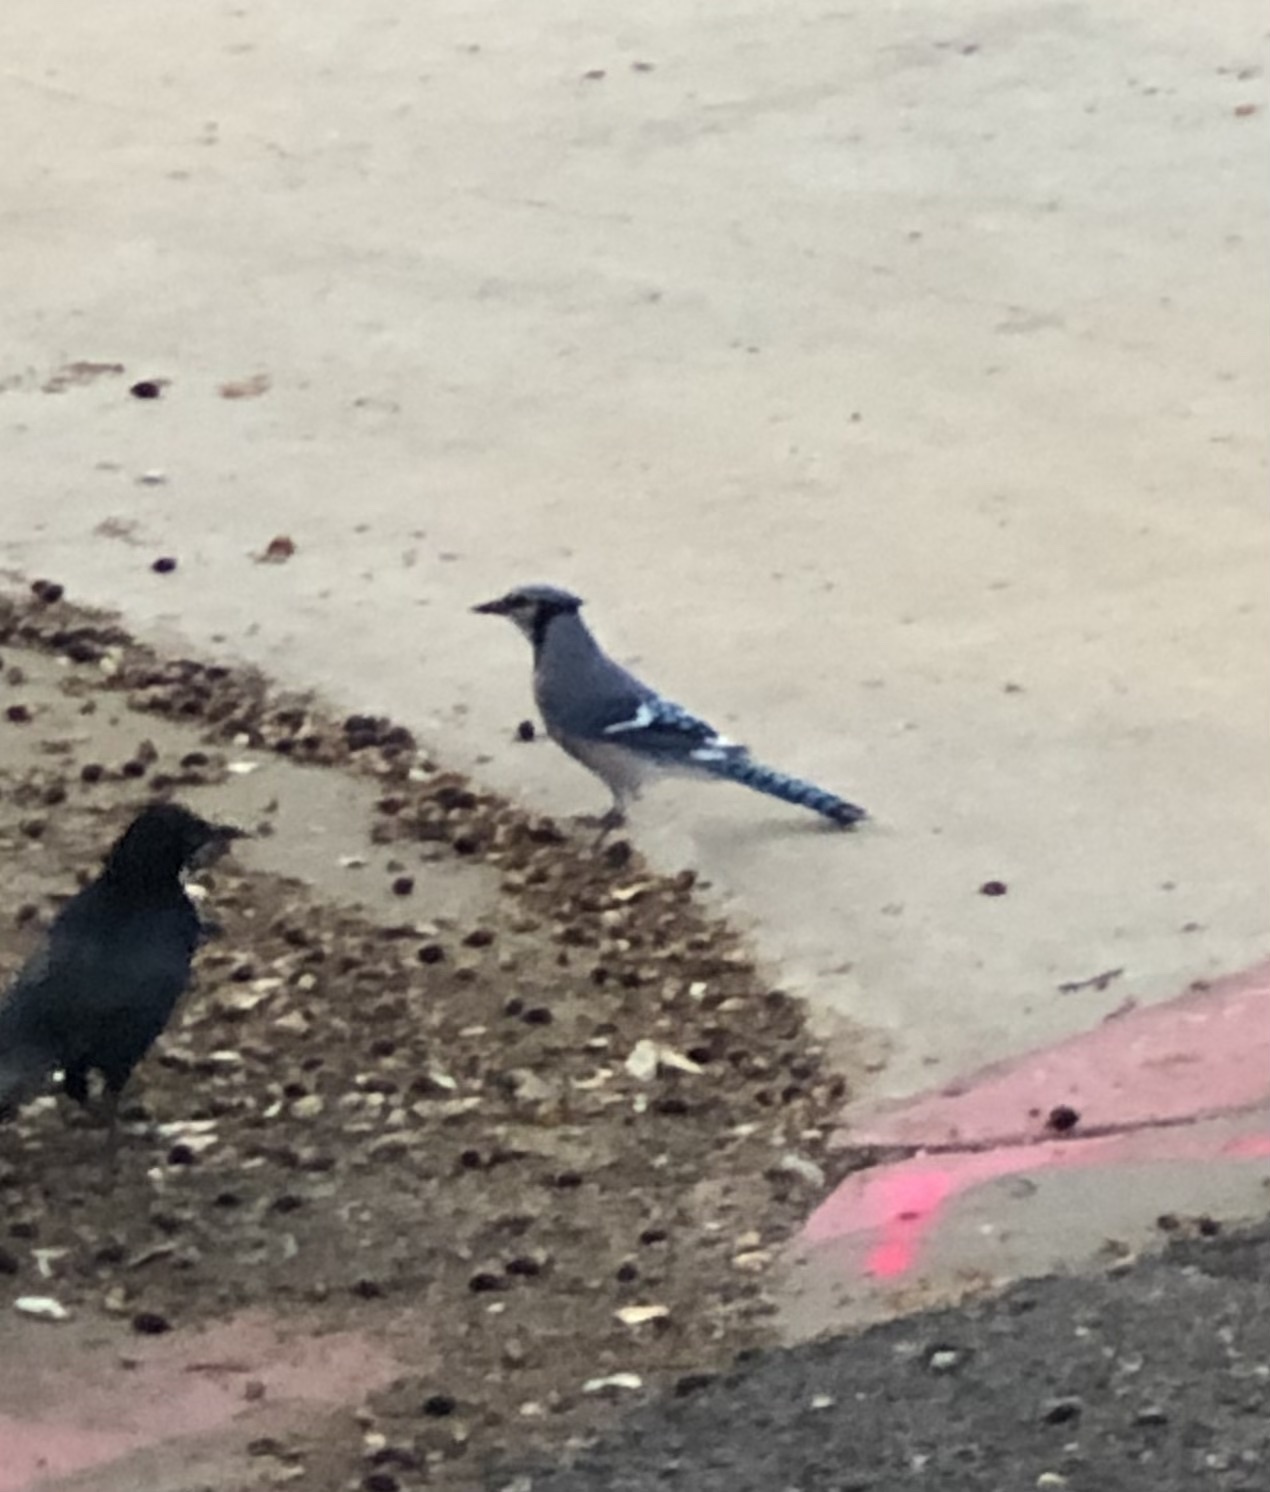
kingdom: Animalia
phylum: Chordata
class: Aves
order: Passeriformes
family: Corvidae
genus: Cyanocitta
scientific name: Cyanocitta cristata
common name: Blue jay
